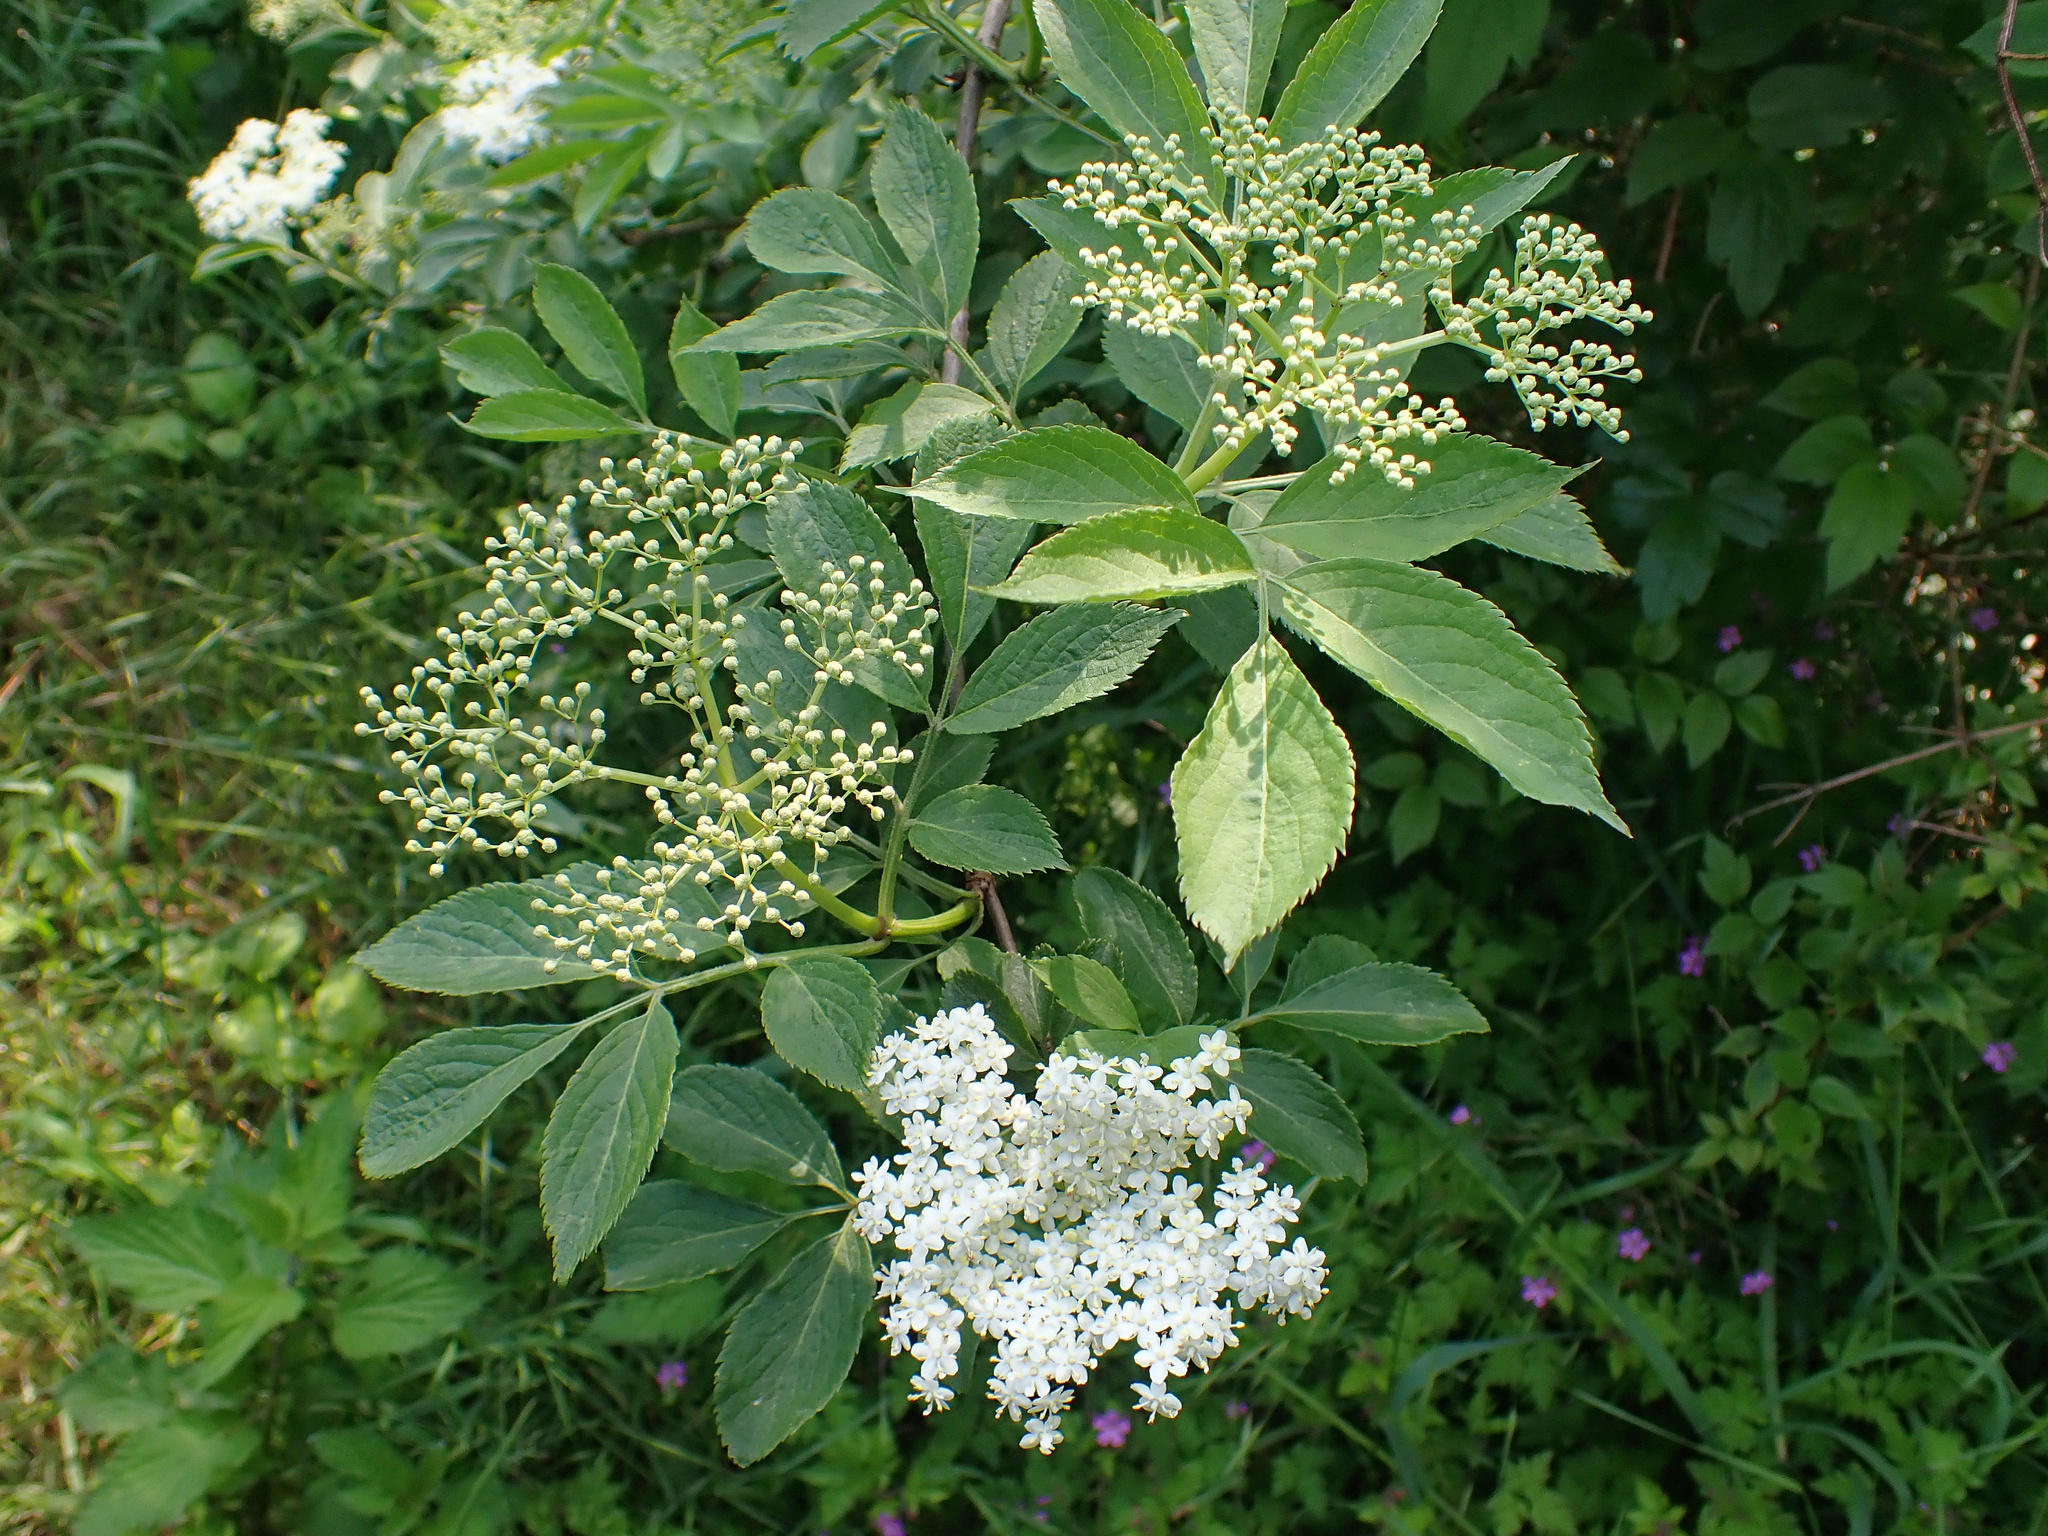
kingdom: Plantae
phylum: Tracheophyta
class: Magnoliopsida
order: Dipsacales
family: Viburnaceae
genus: Sambucus
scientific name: Sambucus nigra
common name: Elder
